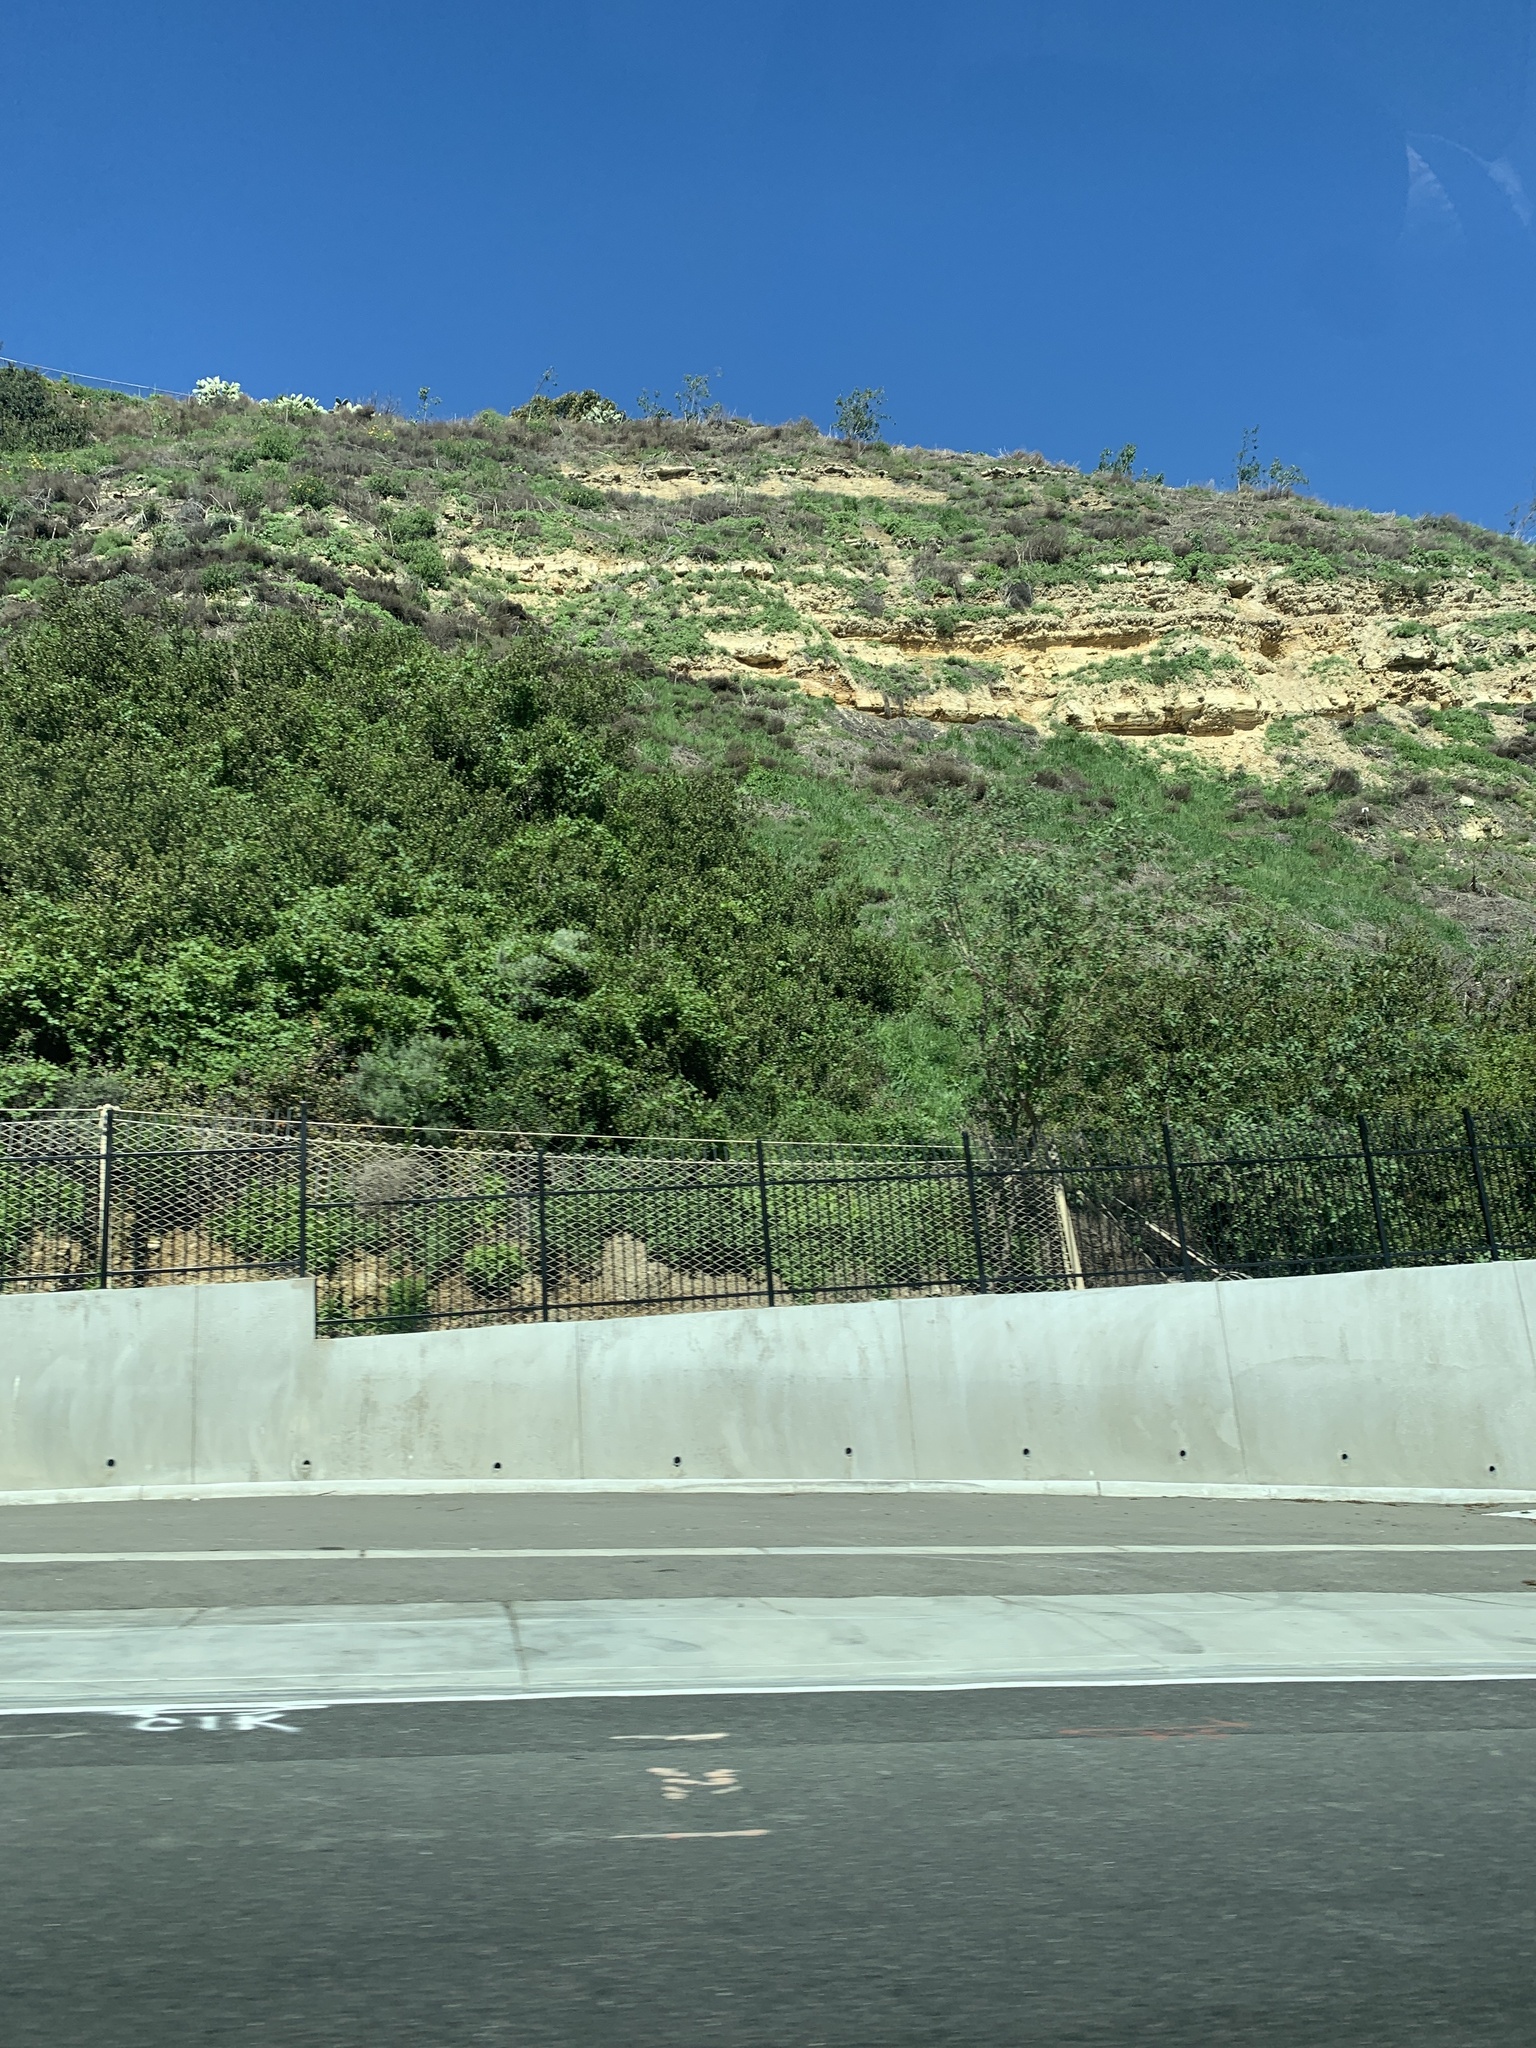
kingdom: Plantae
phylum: Tracheophyta
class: Magnoliopsida
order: Solanales
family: Solanaceae
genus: Nicotiana
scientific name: Nicotiana glauca
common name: Tree tobacco
